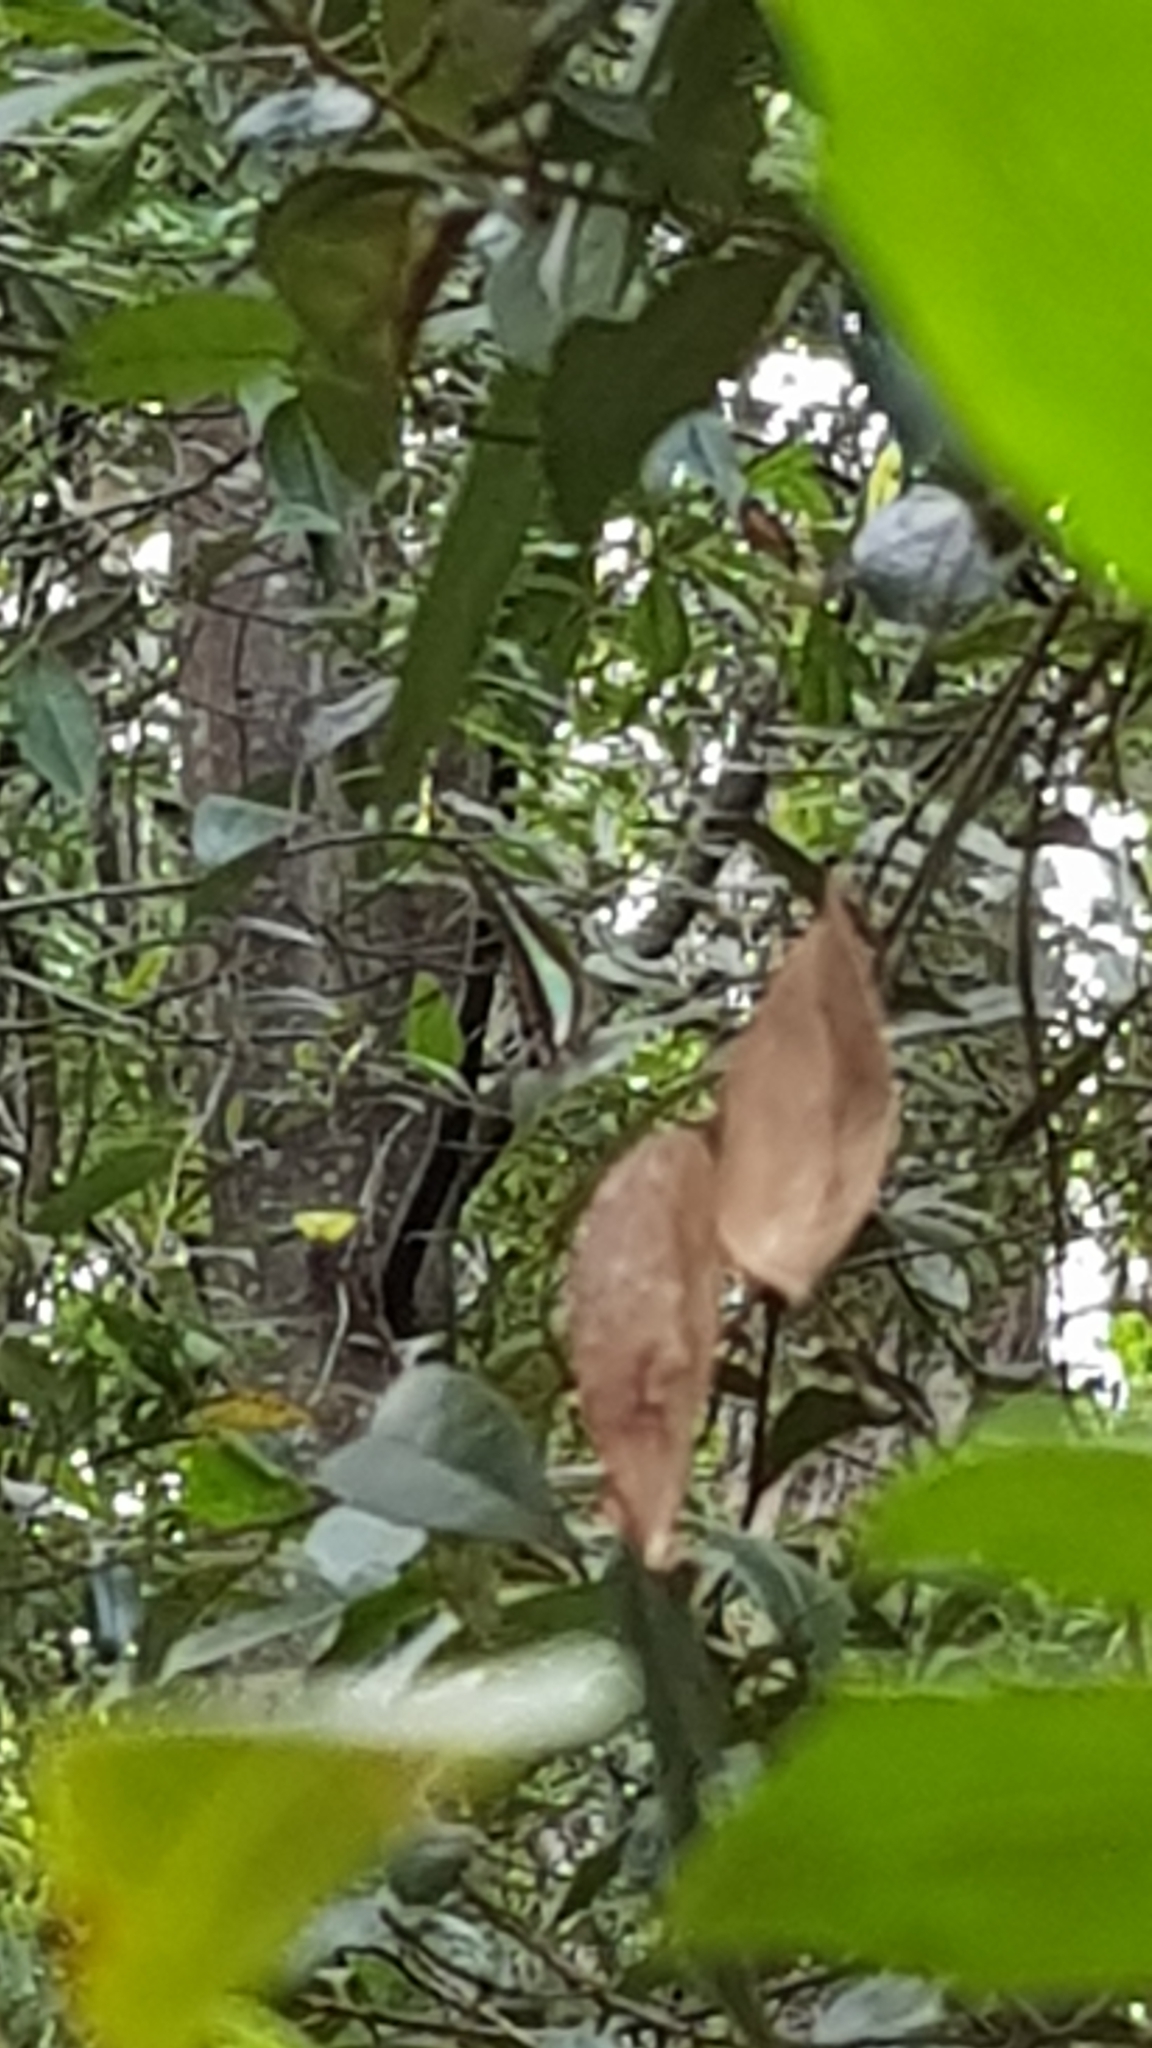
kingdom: Animalia
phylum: Arthropoda
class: Insecta
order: Lepidoptera
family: Papilionidae
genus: Graphium
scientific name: Graphium
